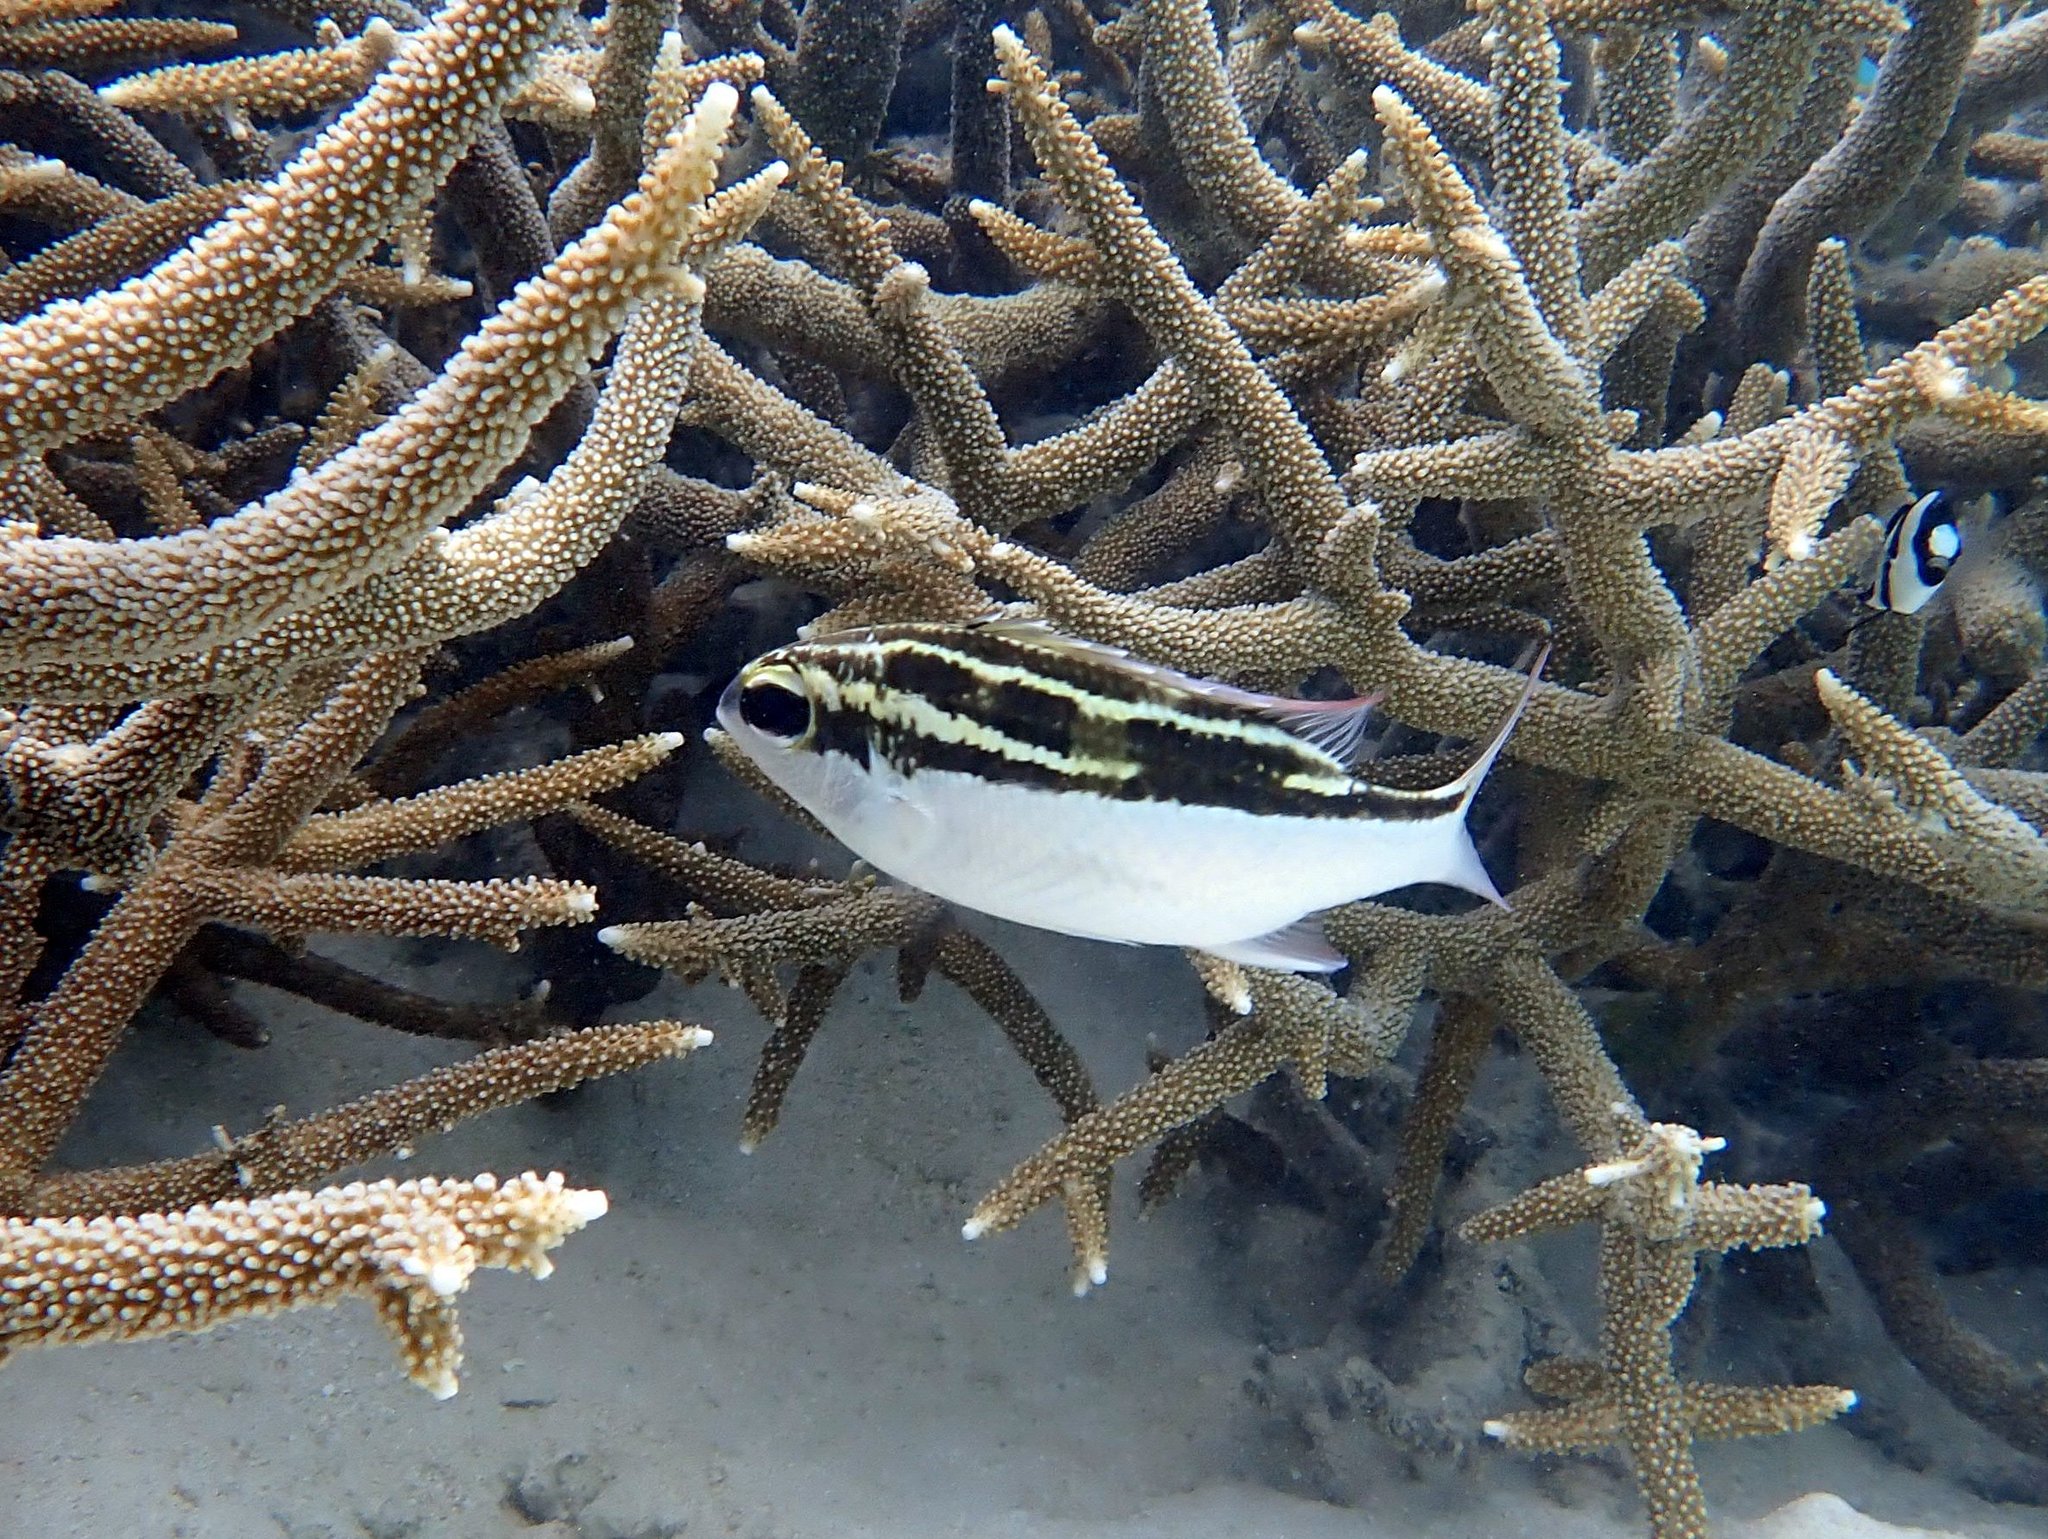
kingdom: Animalia
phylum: Chordata
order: Perciformes
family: Nemipteridae
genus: Scolopsis
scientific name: Scolopsis lineata
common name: Striped monocle bream
